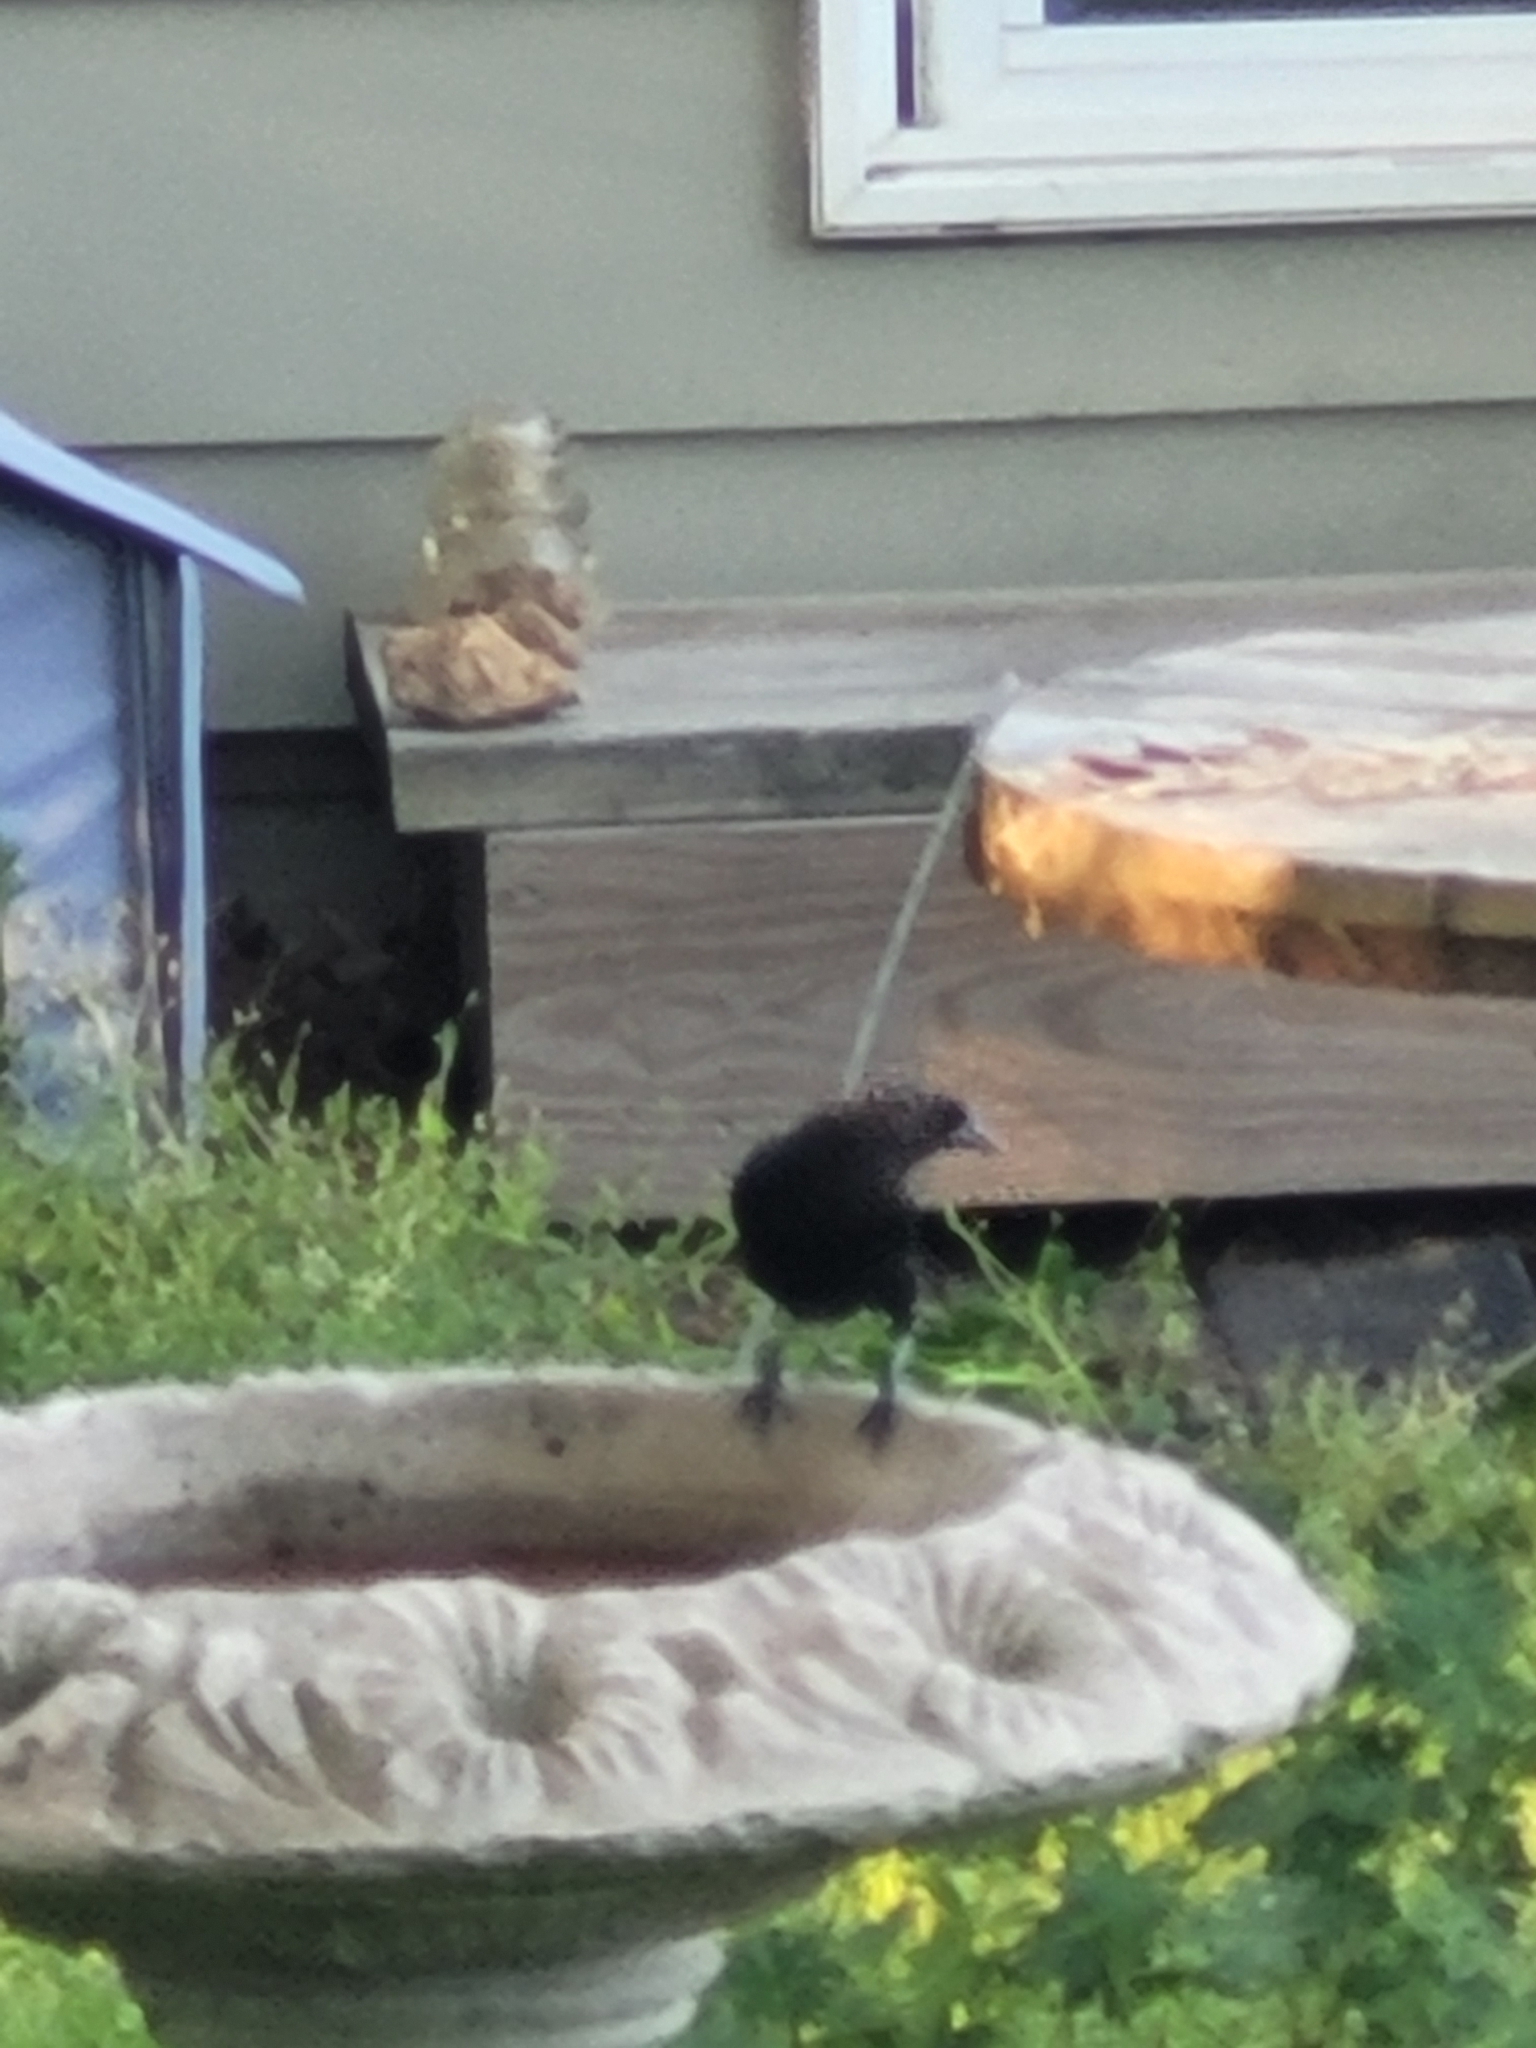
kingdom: Animalia
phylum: Chordata
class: Aves
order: Passeriformes
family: Icteridae
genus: Molothrus
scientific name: Molothrus ater
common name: Brown-headed cowbird
